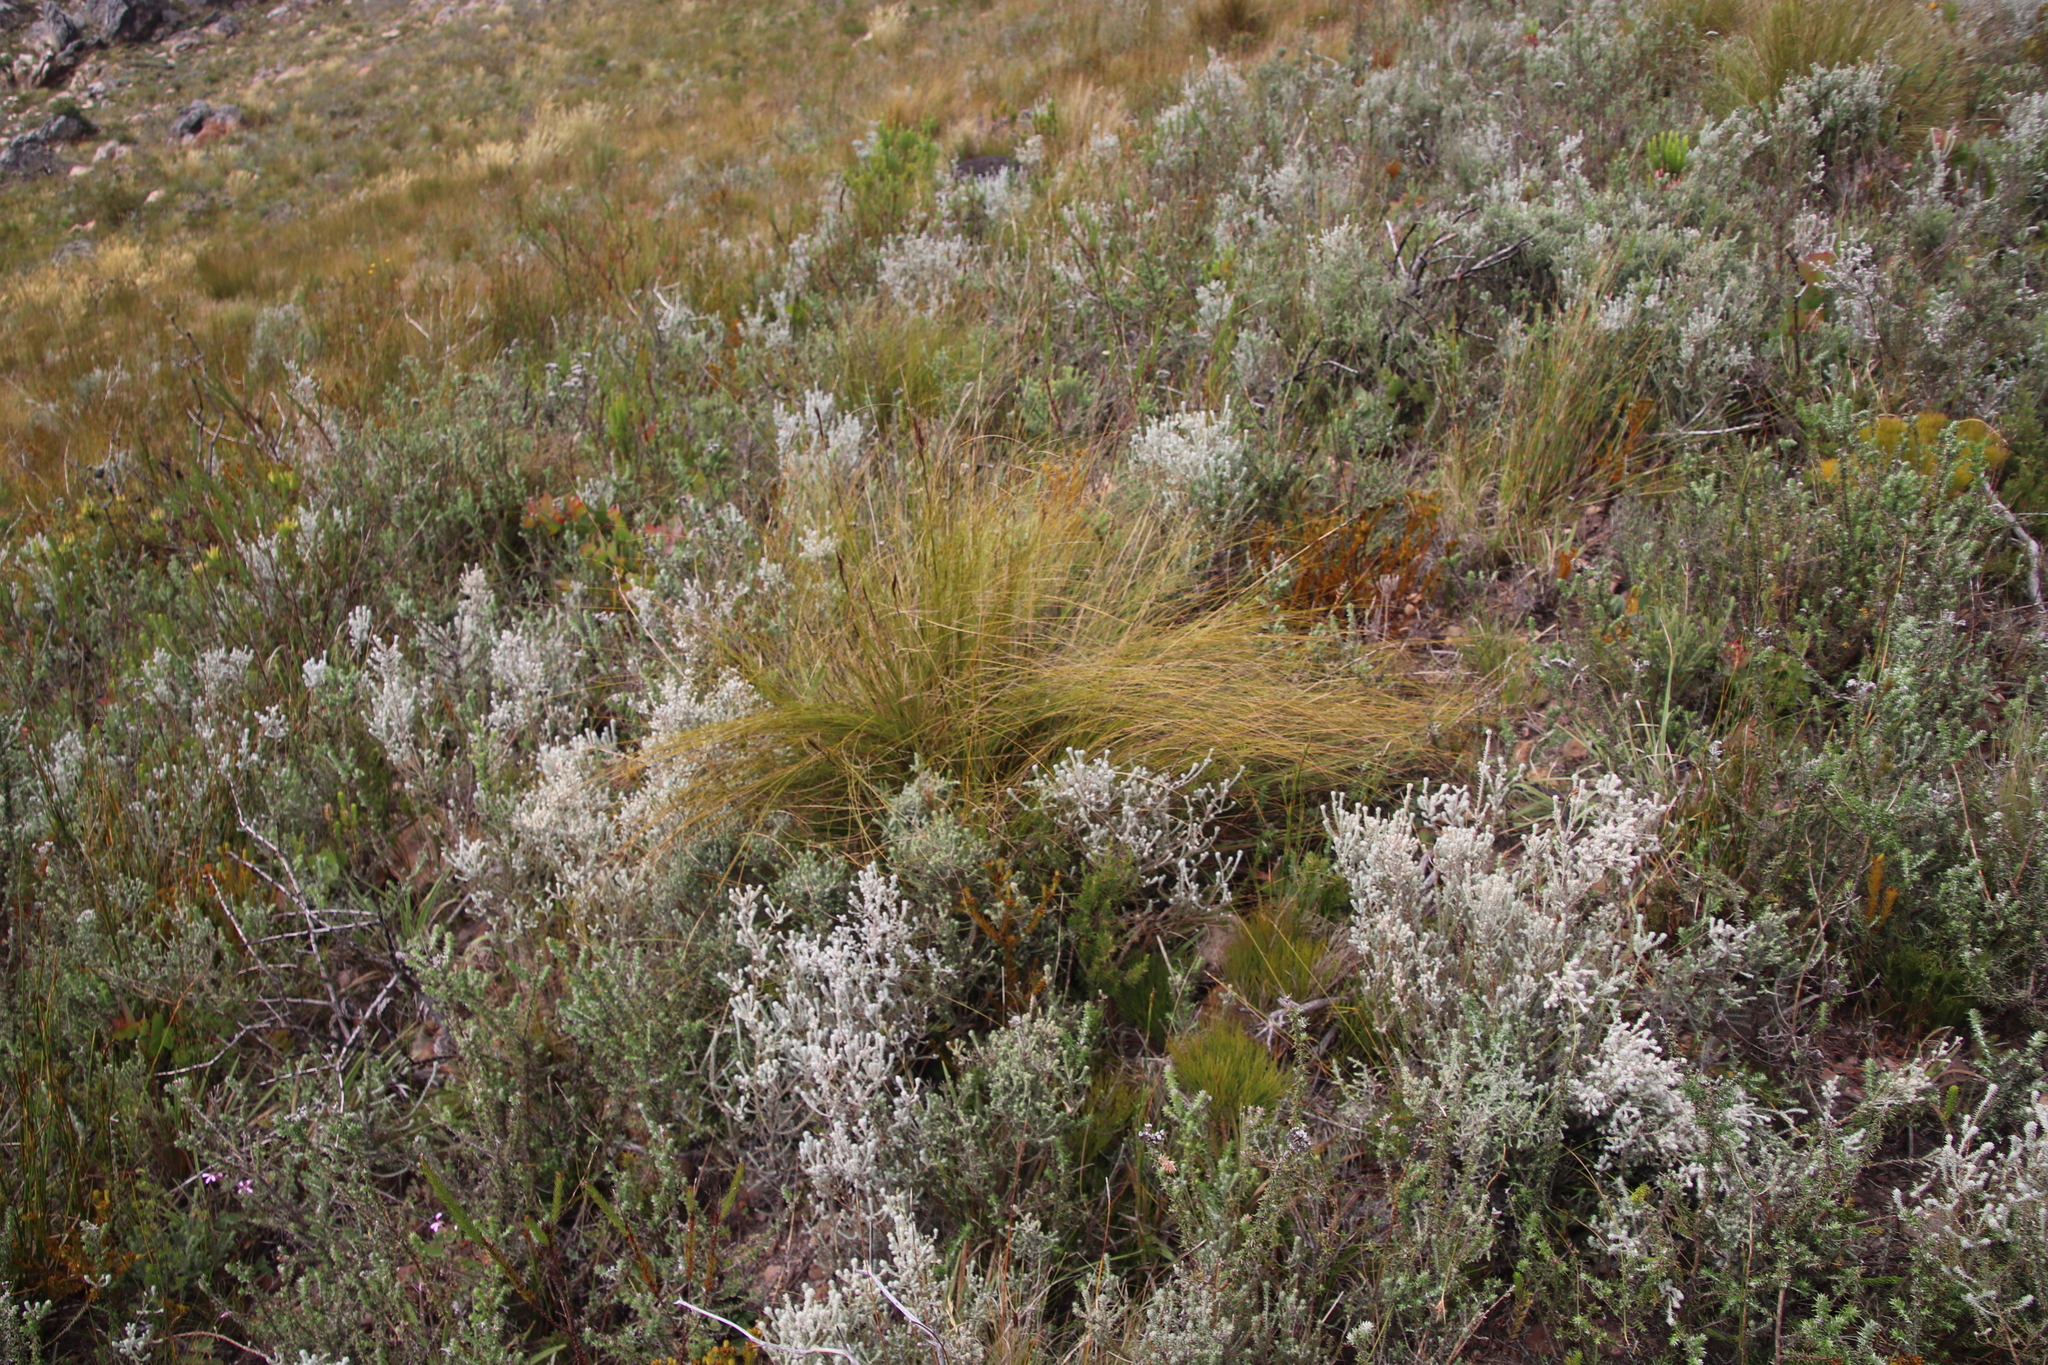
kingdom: Plantae
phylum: Tracheophyta
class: Liliopsida
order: Poales
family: Cyperaceae
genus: Tetraria
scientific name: Tetraria ustulata
